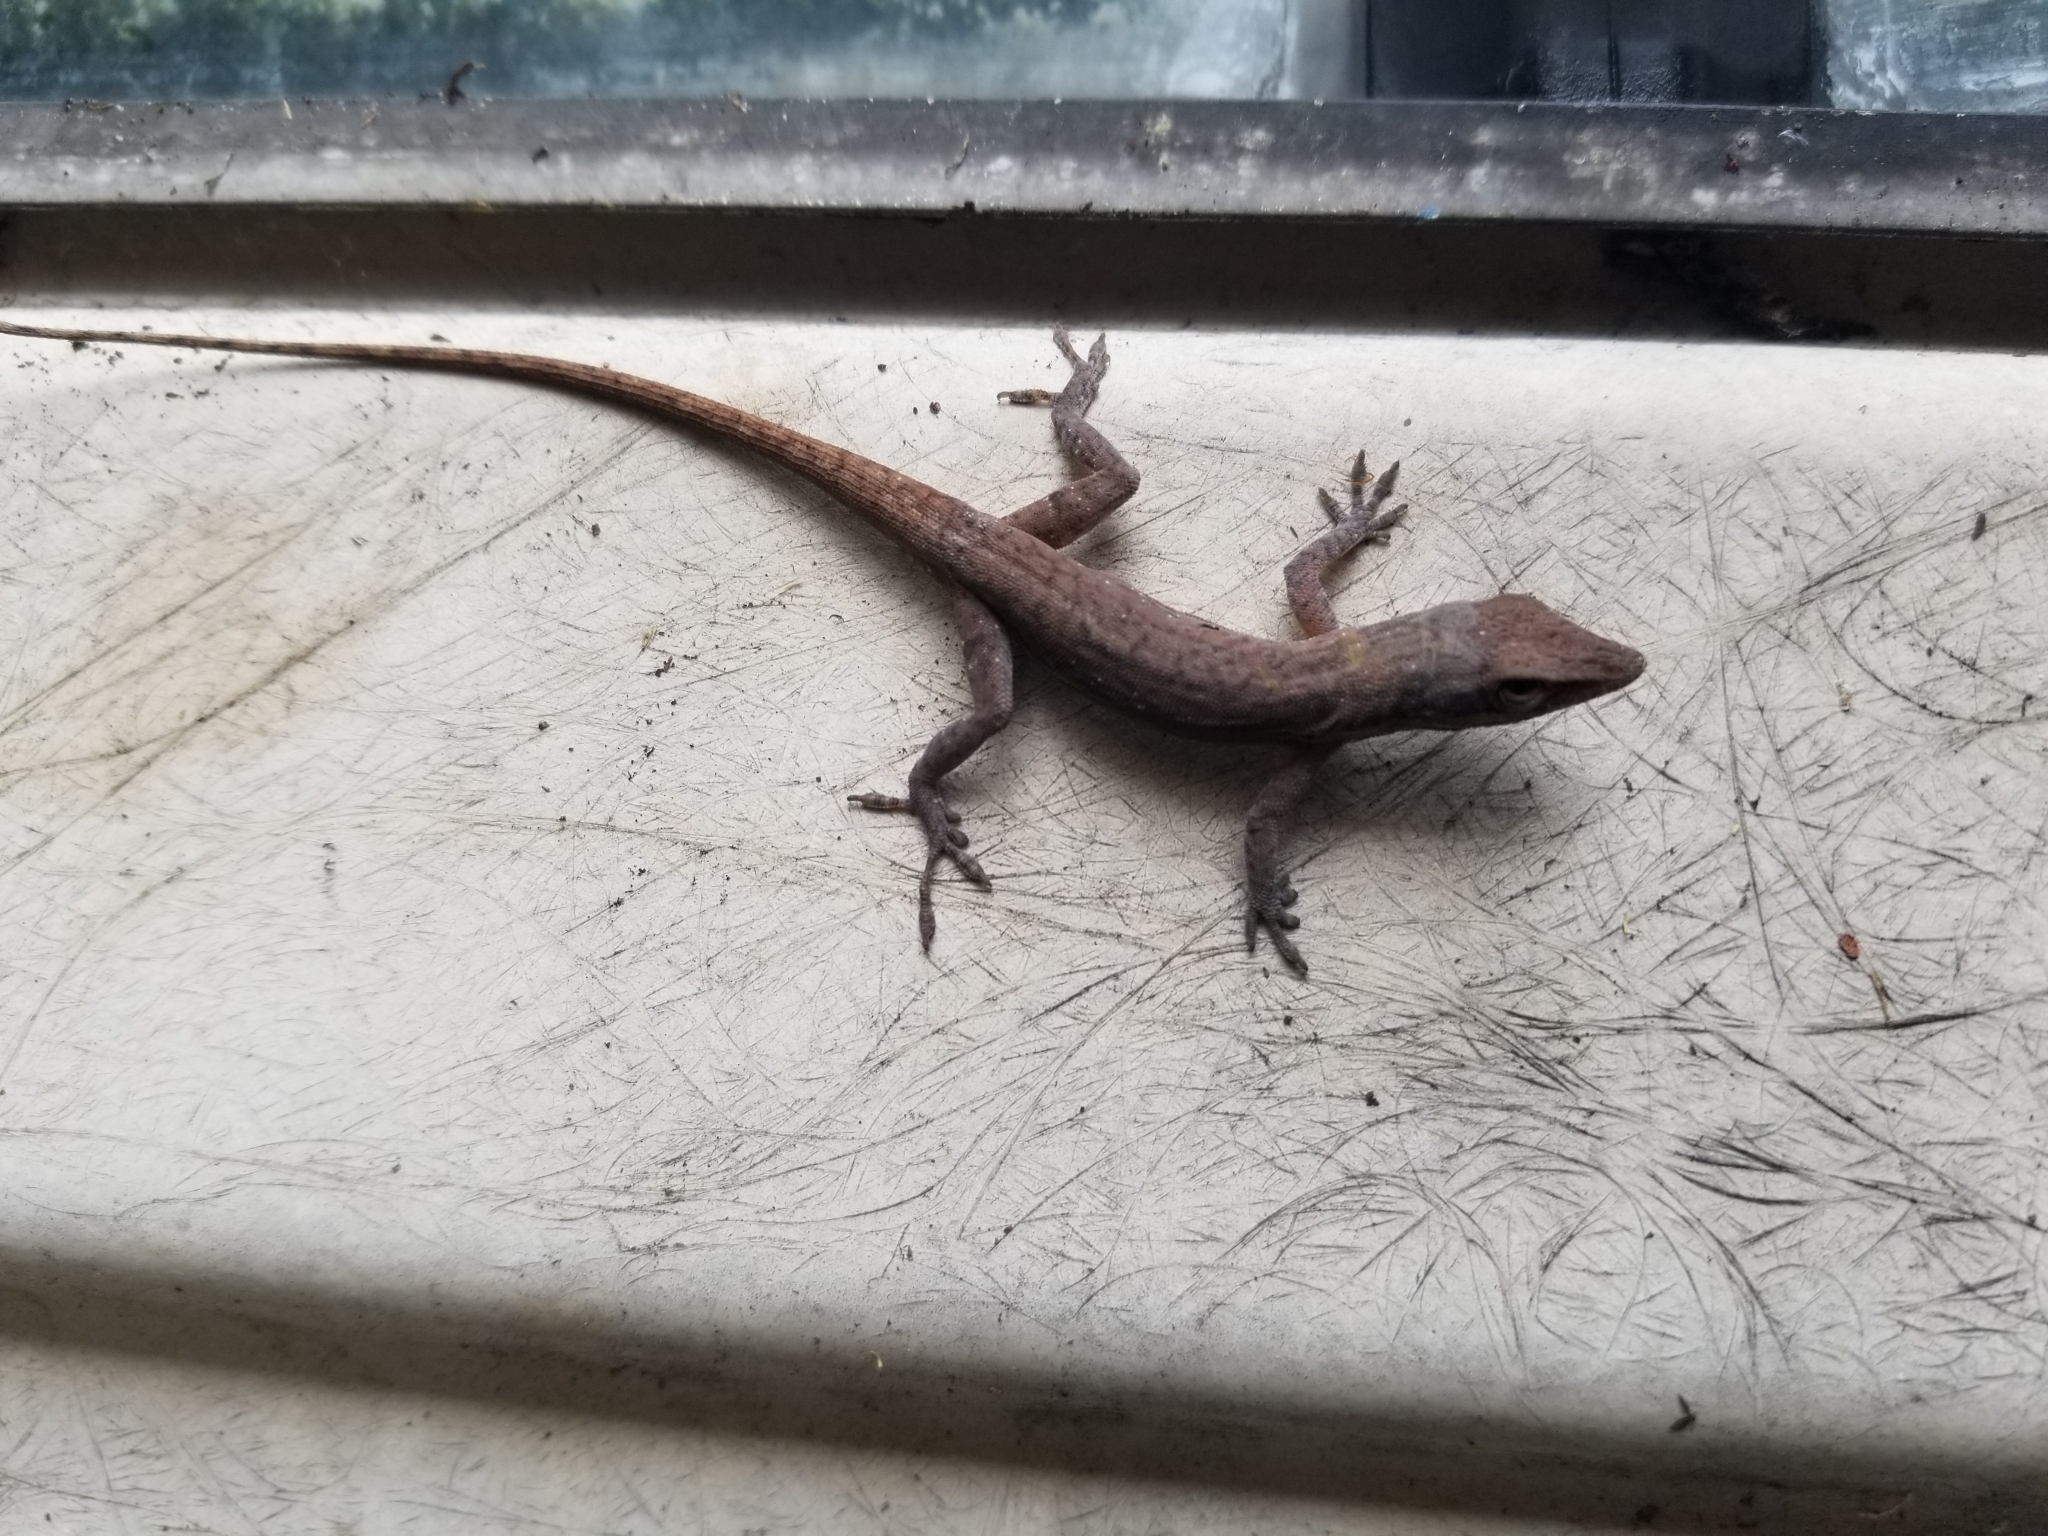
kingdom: Animalia
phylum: Chordata
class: Squamata
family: Dactyloidae
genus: Anolis
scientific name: Anolis carolinensis
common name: Green anole
